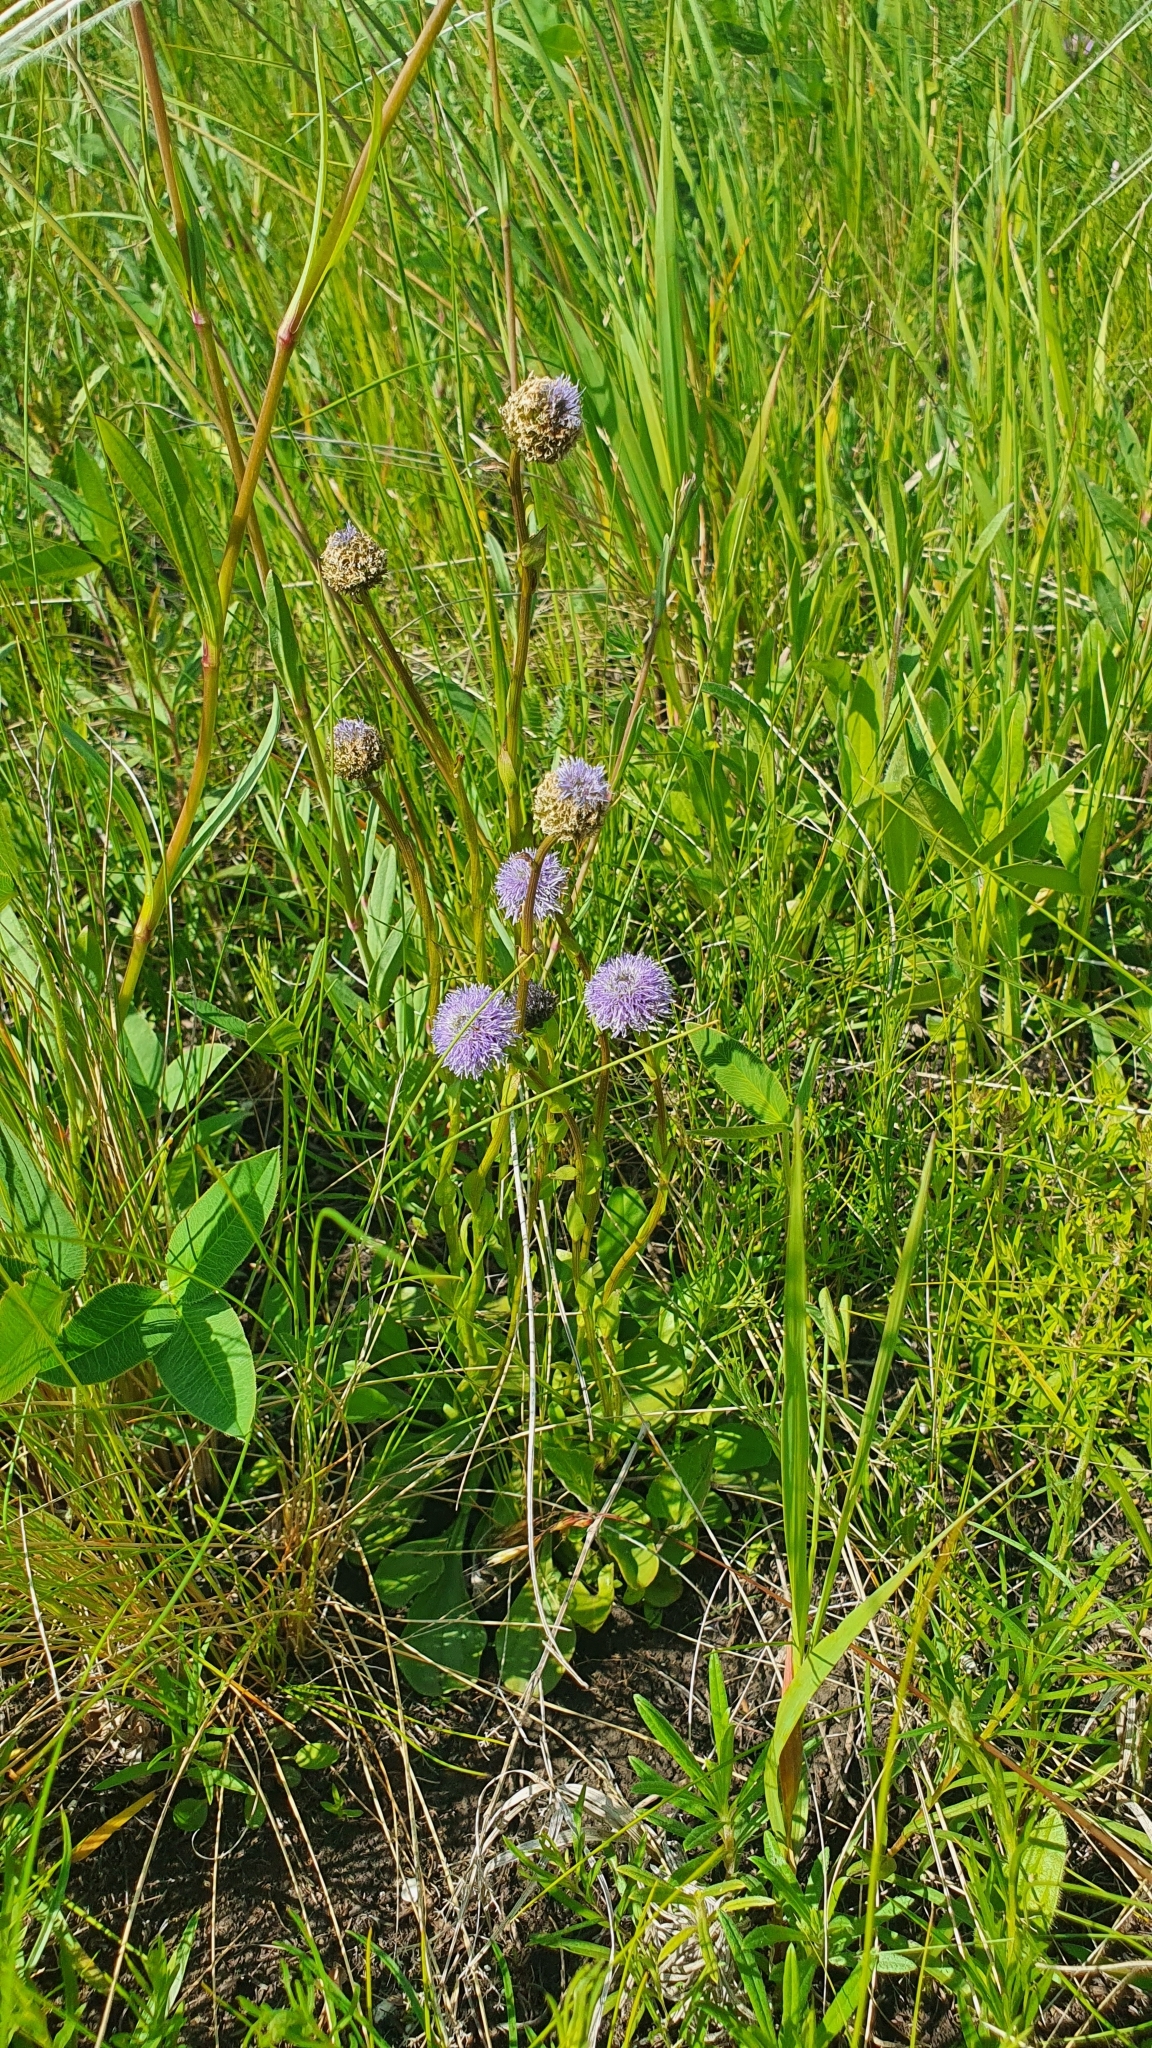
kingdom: Plantae
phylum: Tracheophyta
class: Magnoliopsida
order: Lamiales
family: Plantaginaceae
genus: Globularia
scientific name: Globularia bisnagarica
